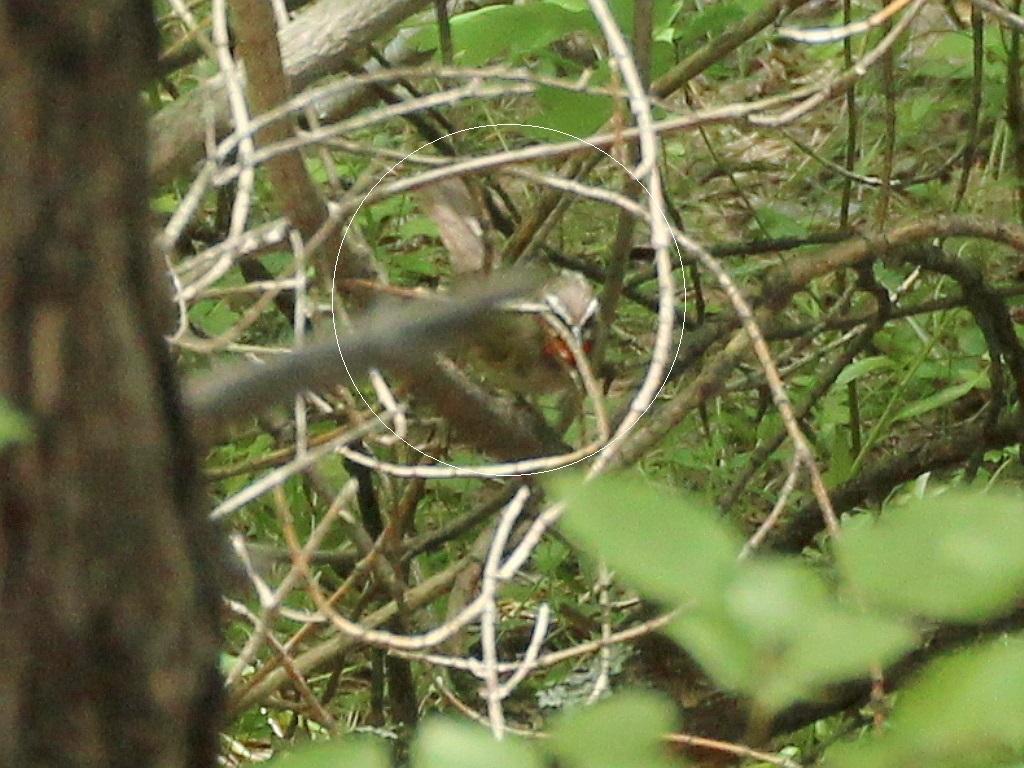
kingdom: Animalia
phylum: Chordata
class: Aves
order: Passeriformes
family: Muscicapidae
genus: Luscinia
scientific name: Luscinia calliope
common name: Siberian rubythroat
